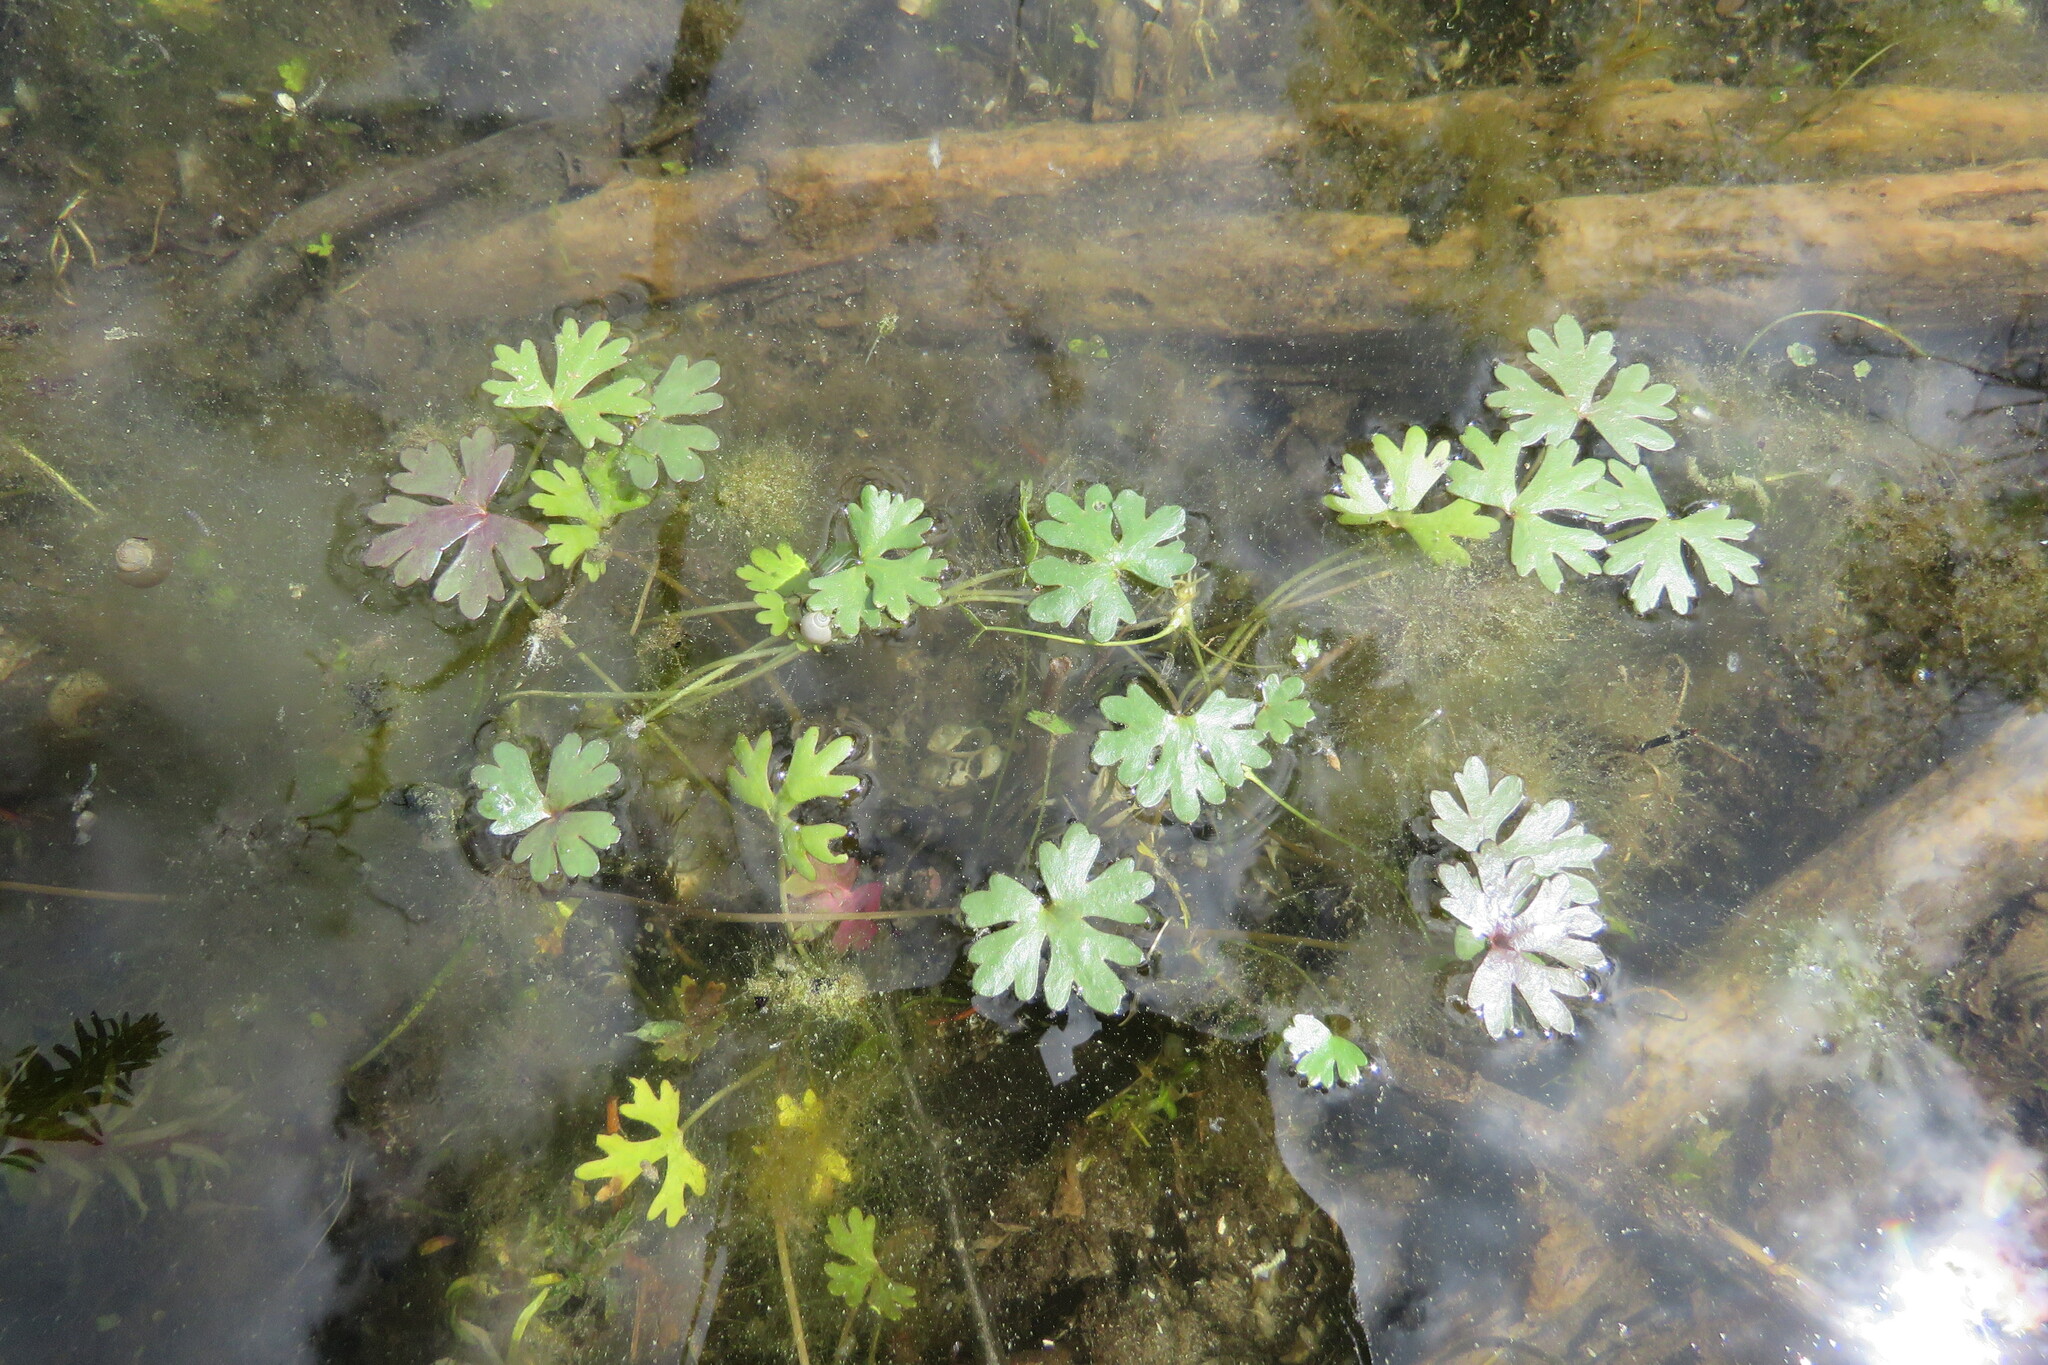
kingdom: Plantae
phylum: Tracheophyta
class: Magnoliopsida
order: Ranunculales
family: Ranunculaceae
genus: Ranunculus
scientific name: Ranunculus gmelinii
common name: Gmelin's buttercup
